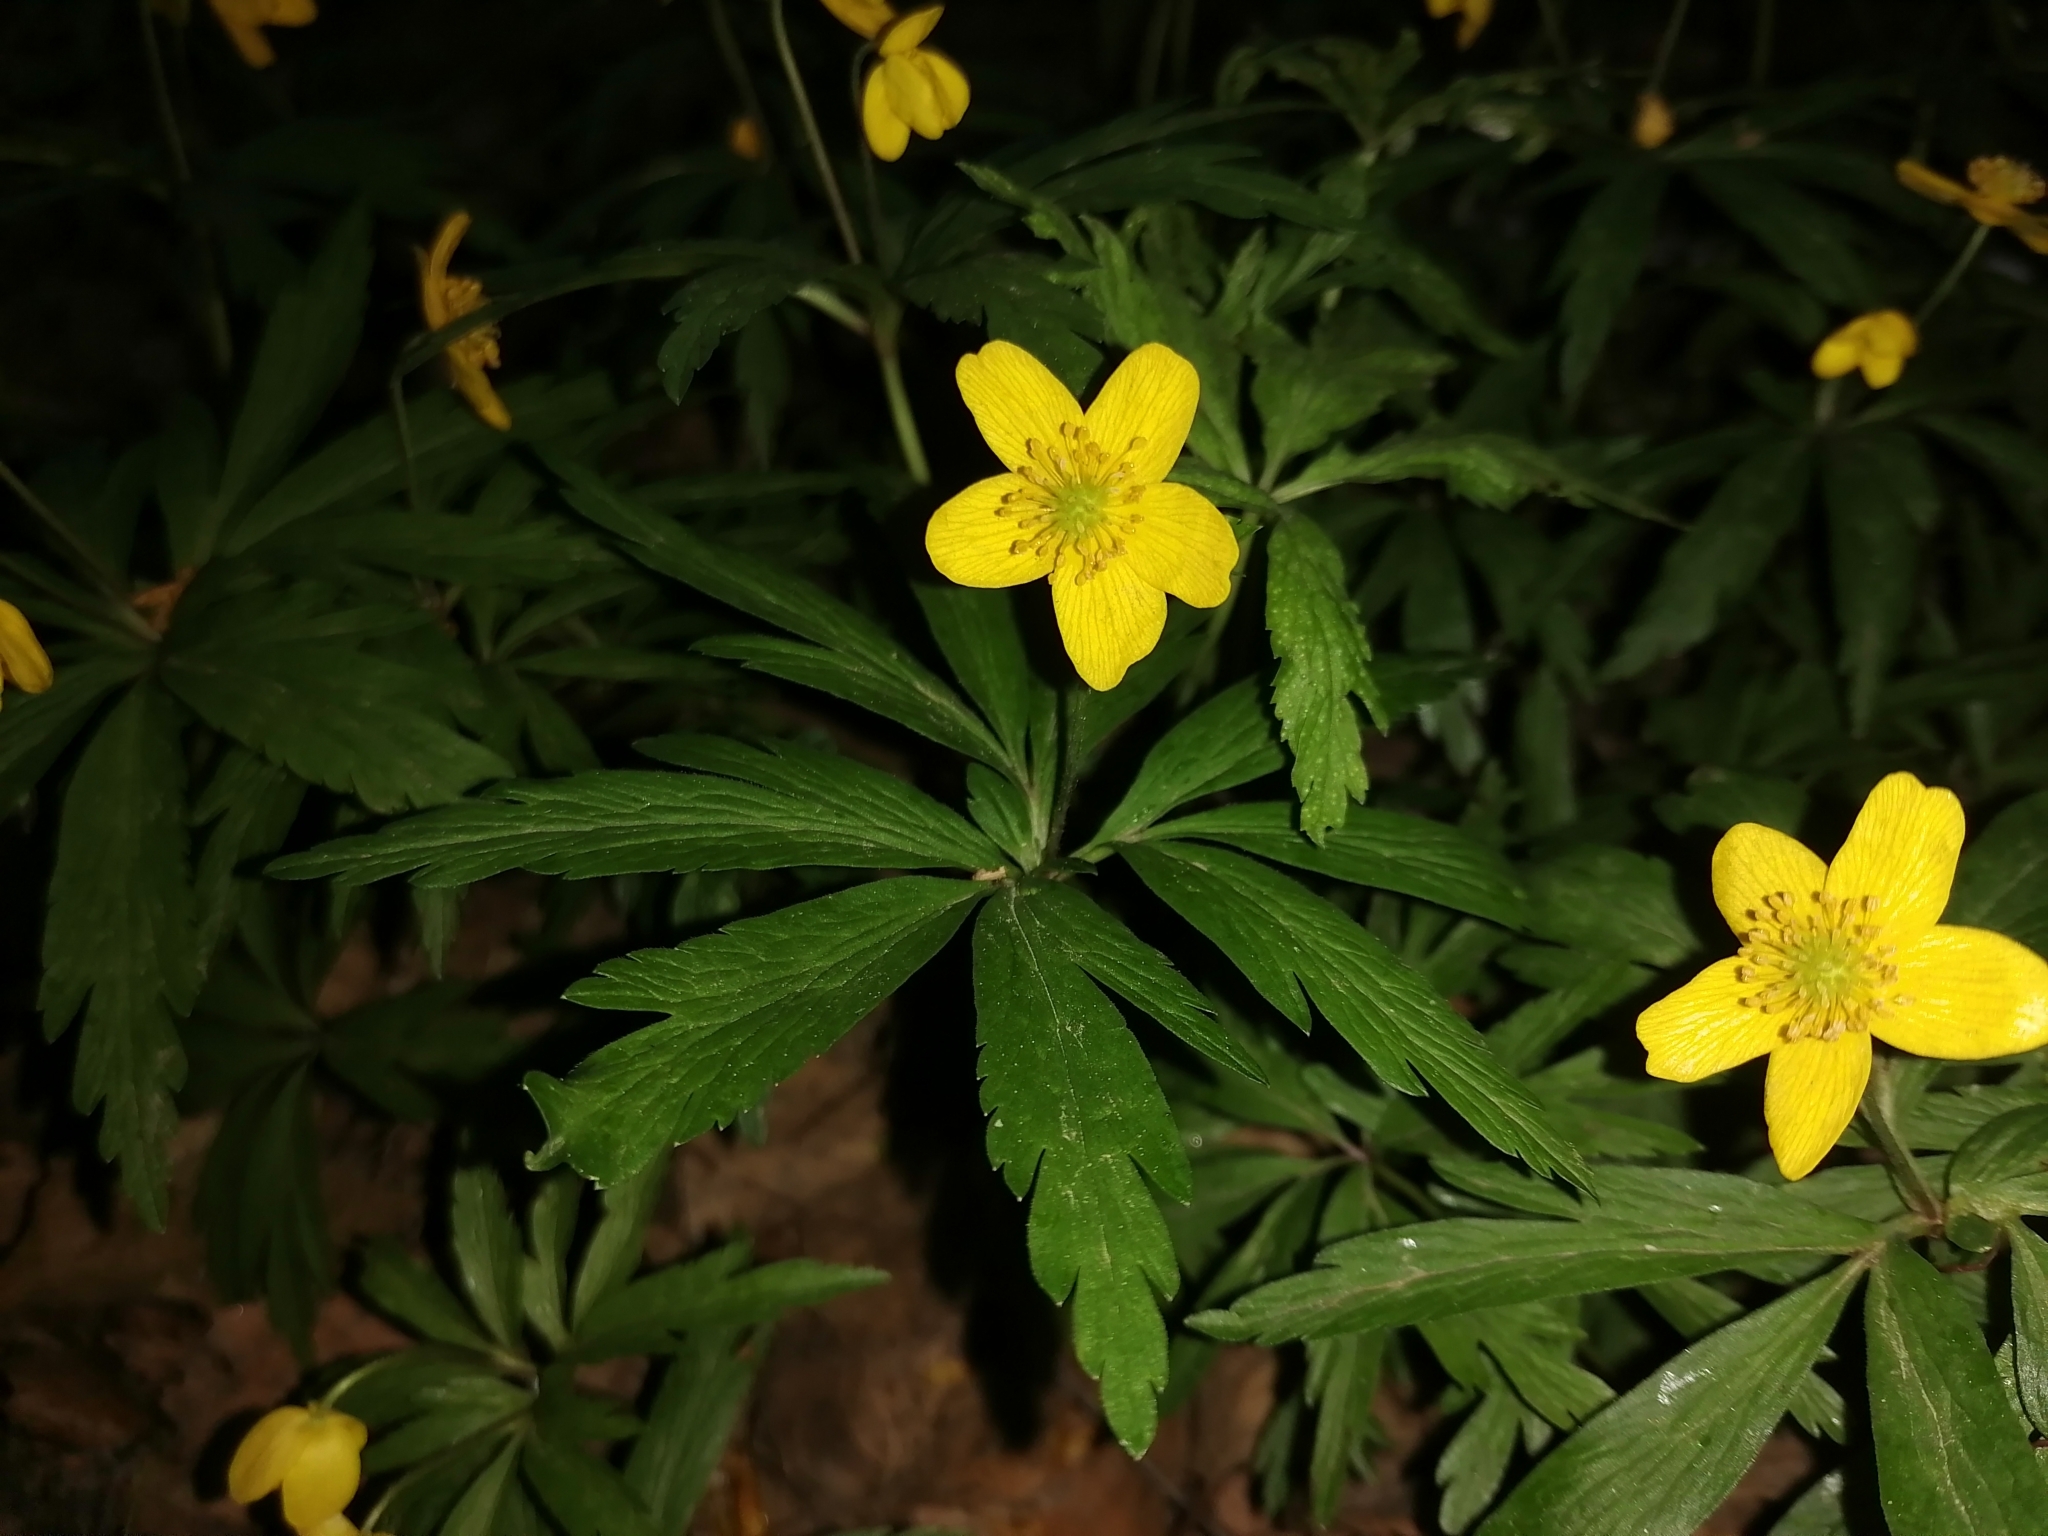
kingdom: Plantae
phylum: Tracheophyta
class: Magnoliopsida
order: Ranunculales
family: Ranunculaceae
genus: Anemone
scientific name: Anemone ranunculoides
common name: Yellow anemone
